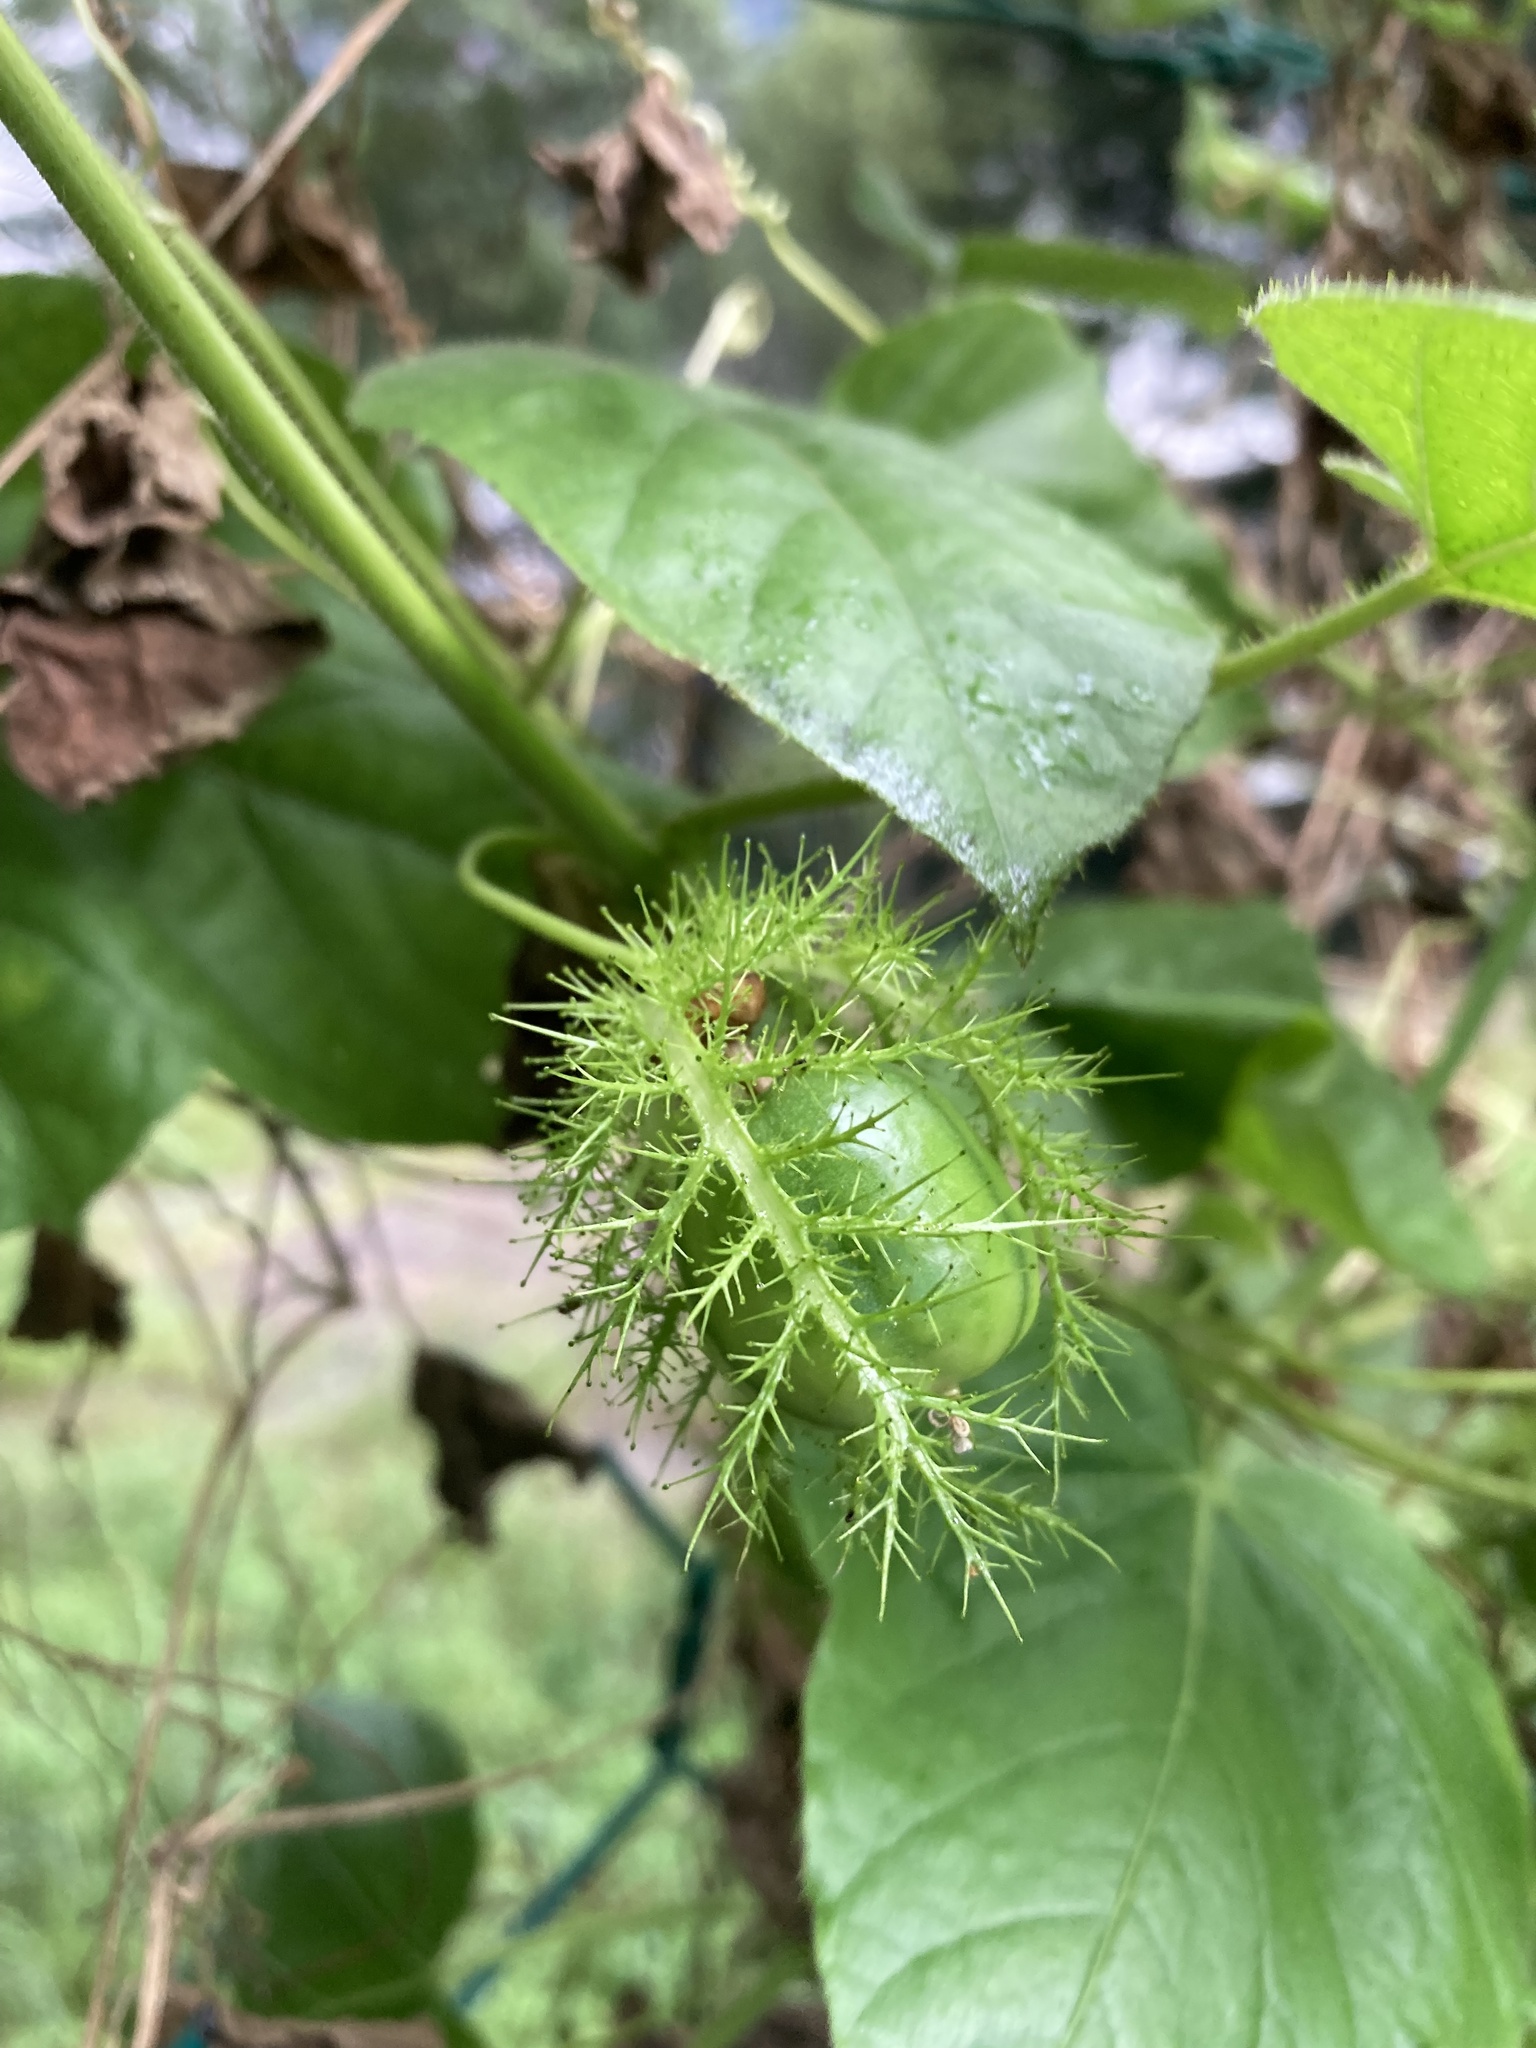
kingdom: Plantae
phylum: Tracheophyta
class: Magnoliopsida
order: Malpighiales
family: Passifloraceae
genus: Passiflora
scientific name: Passiflora foetida
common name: Fetid passionflower
